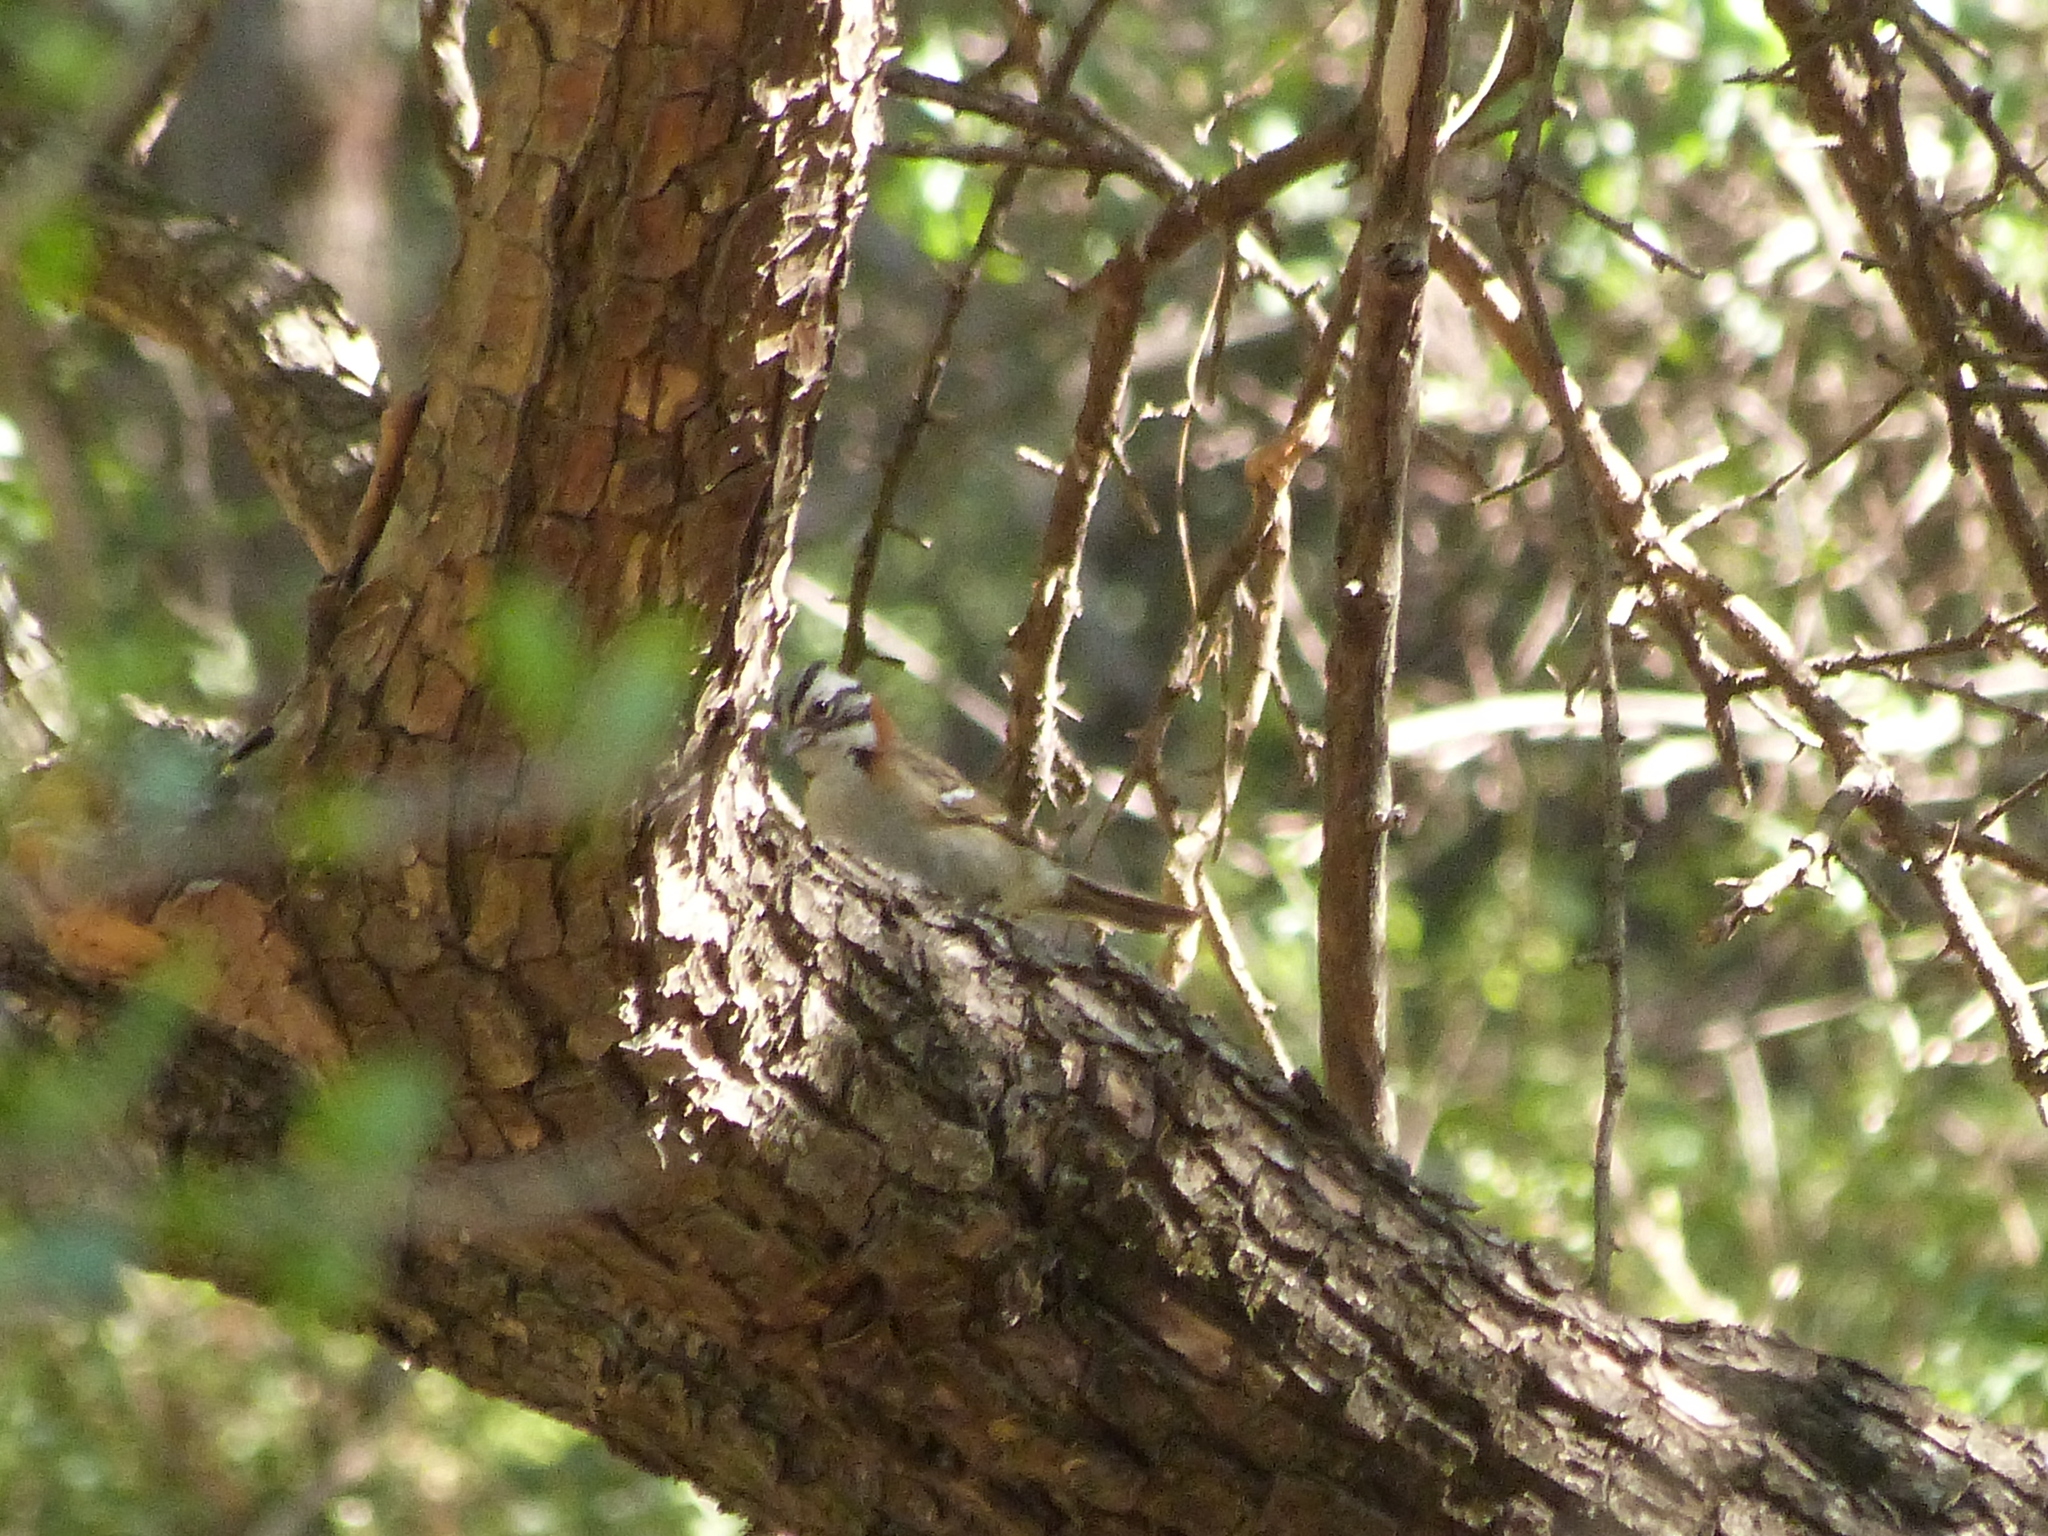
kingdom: Animalia
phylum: Chordata
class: Aves
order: Passeriformes
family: Passerellidae
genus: Zonotrichia
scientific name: Zonotrichia capensis
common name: Rufous-collared sparrow
